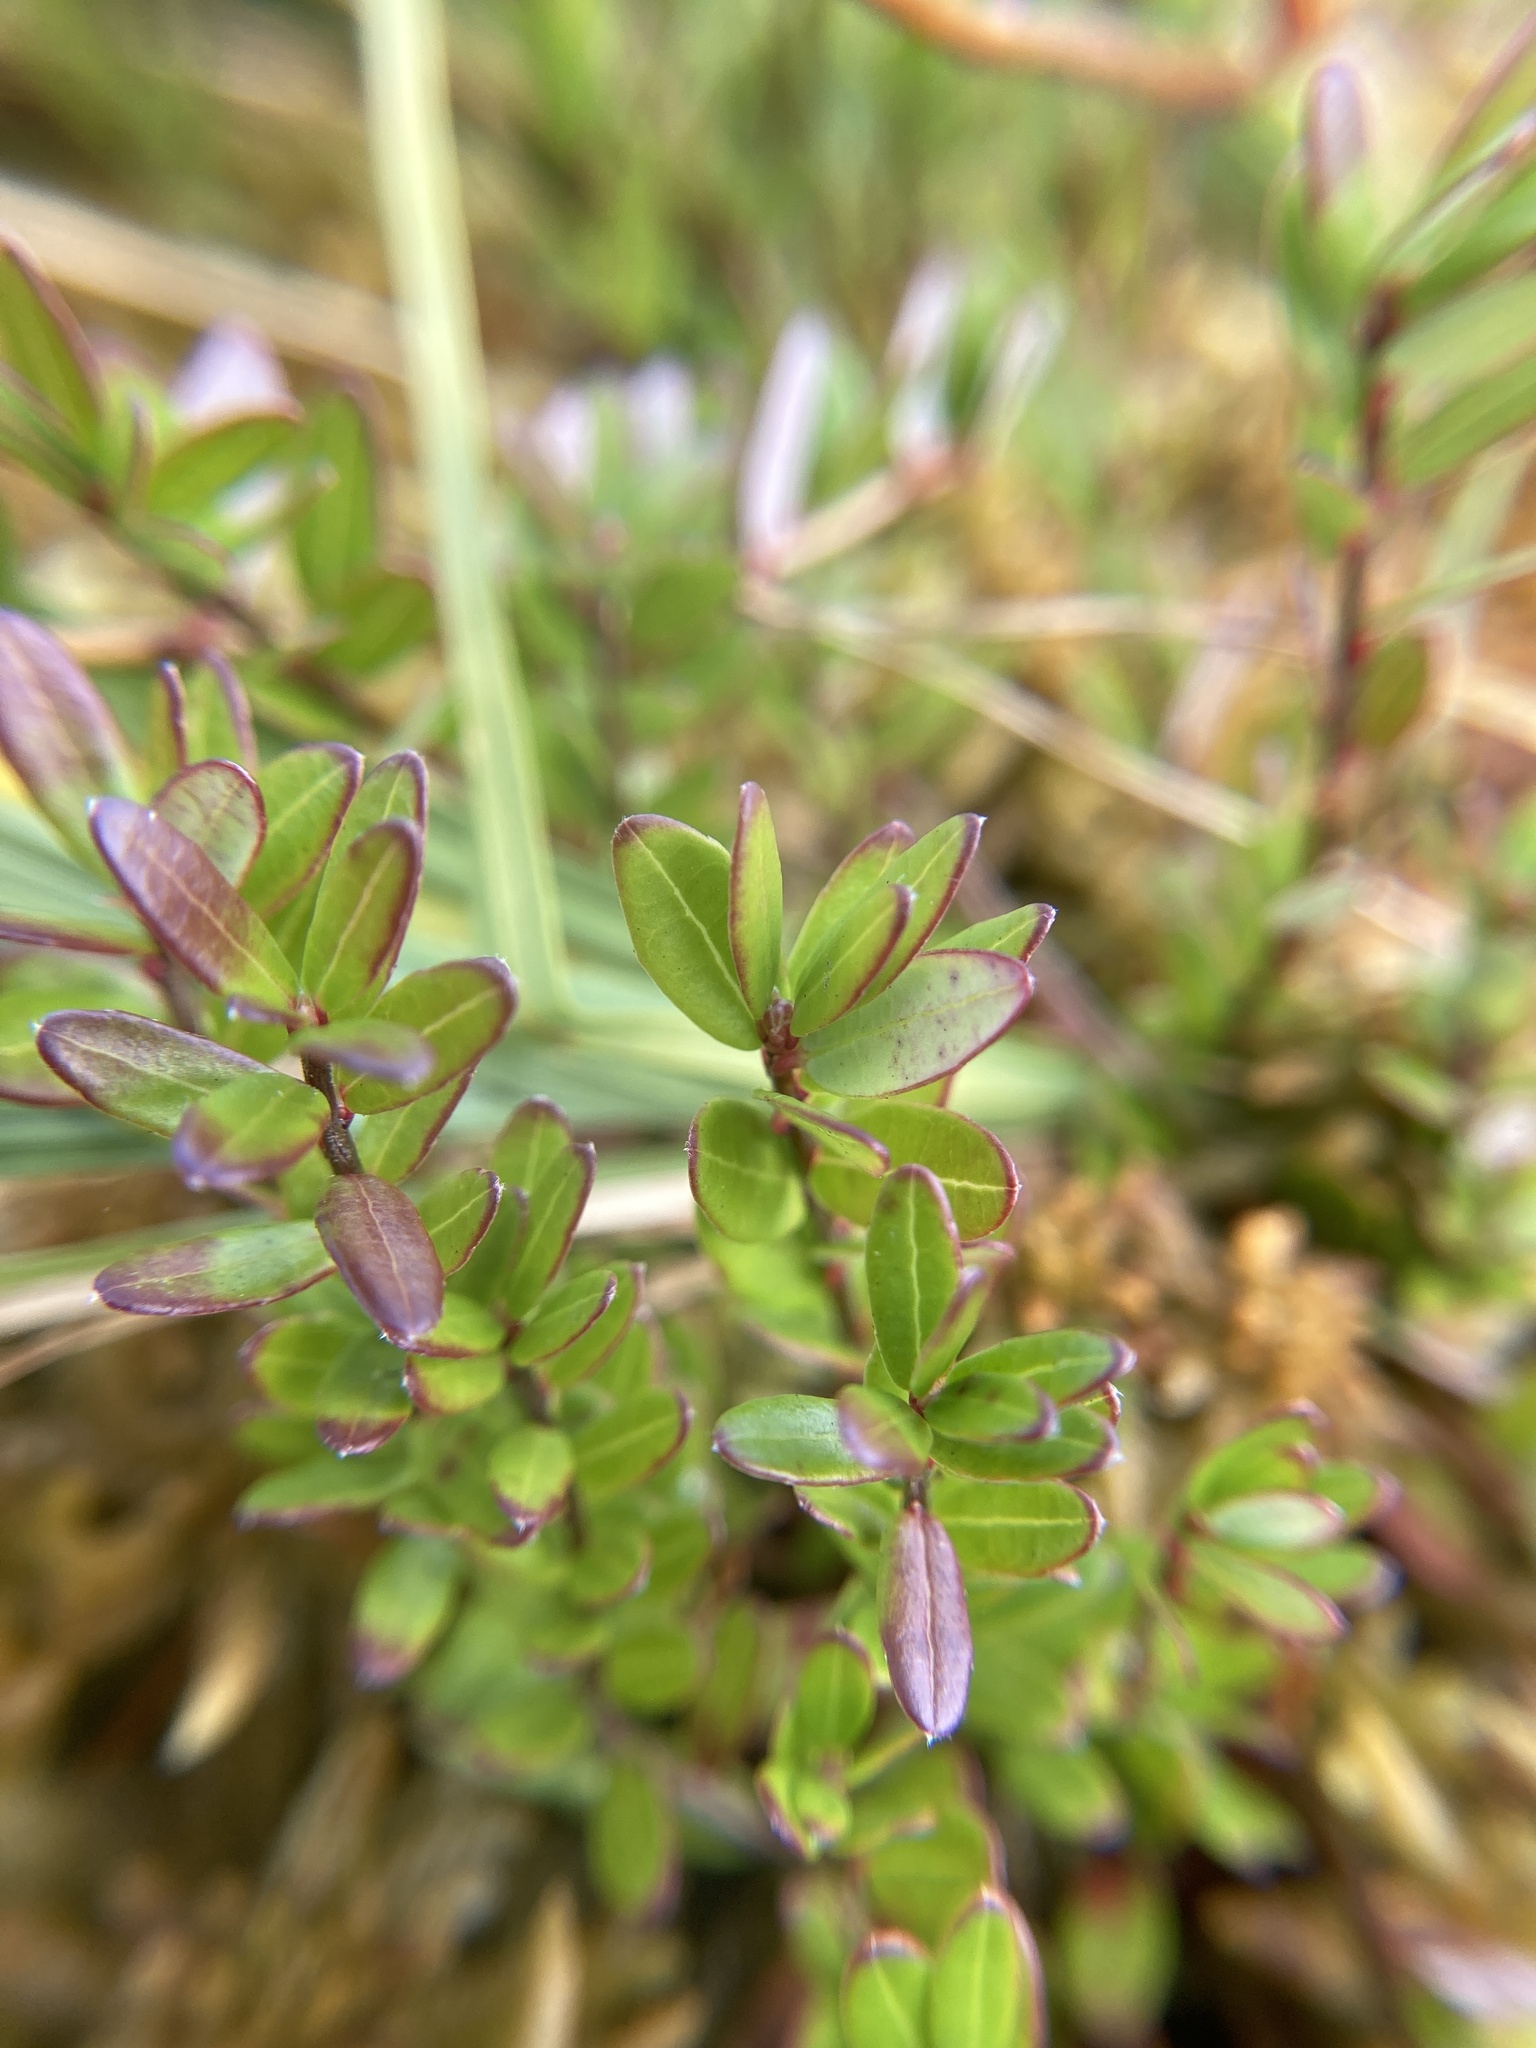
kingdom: Plantae
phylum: Tracheophyta
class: Magnoliopsida
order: Ericales
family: Ericaceae
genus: Vaccinium
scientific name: Vaccinium macrocarpon
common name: American cranberry
